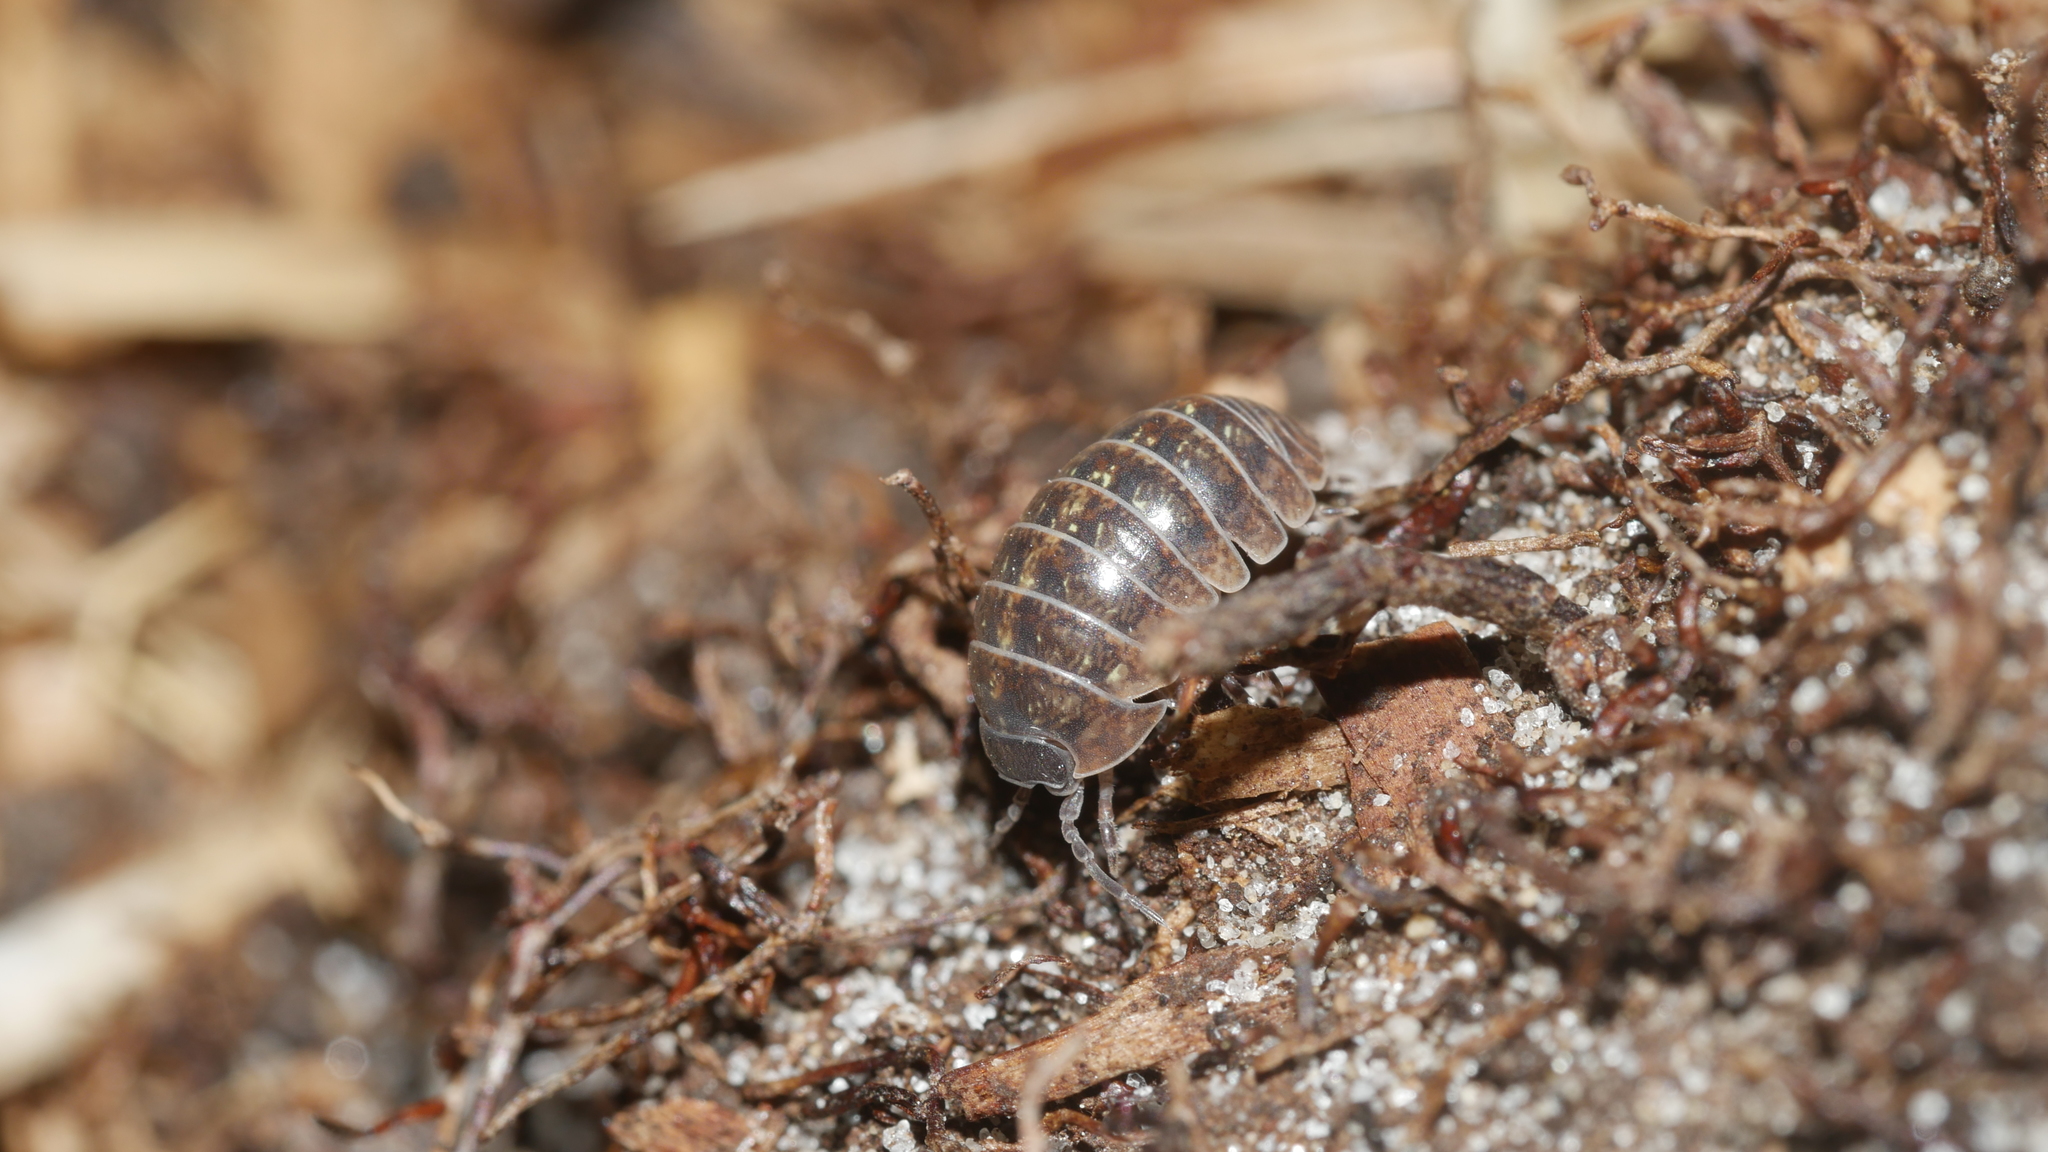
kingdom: Animalia
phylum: Arthropoda
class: Malacostraca
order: Isopoda
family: Armadillidiidae
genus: Armadillidium
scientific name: Armadillidium vulgare
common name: Common pill woodlouse
